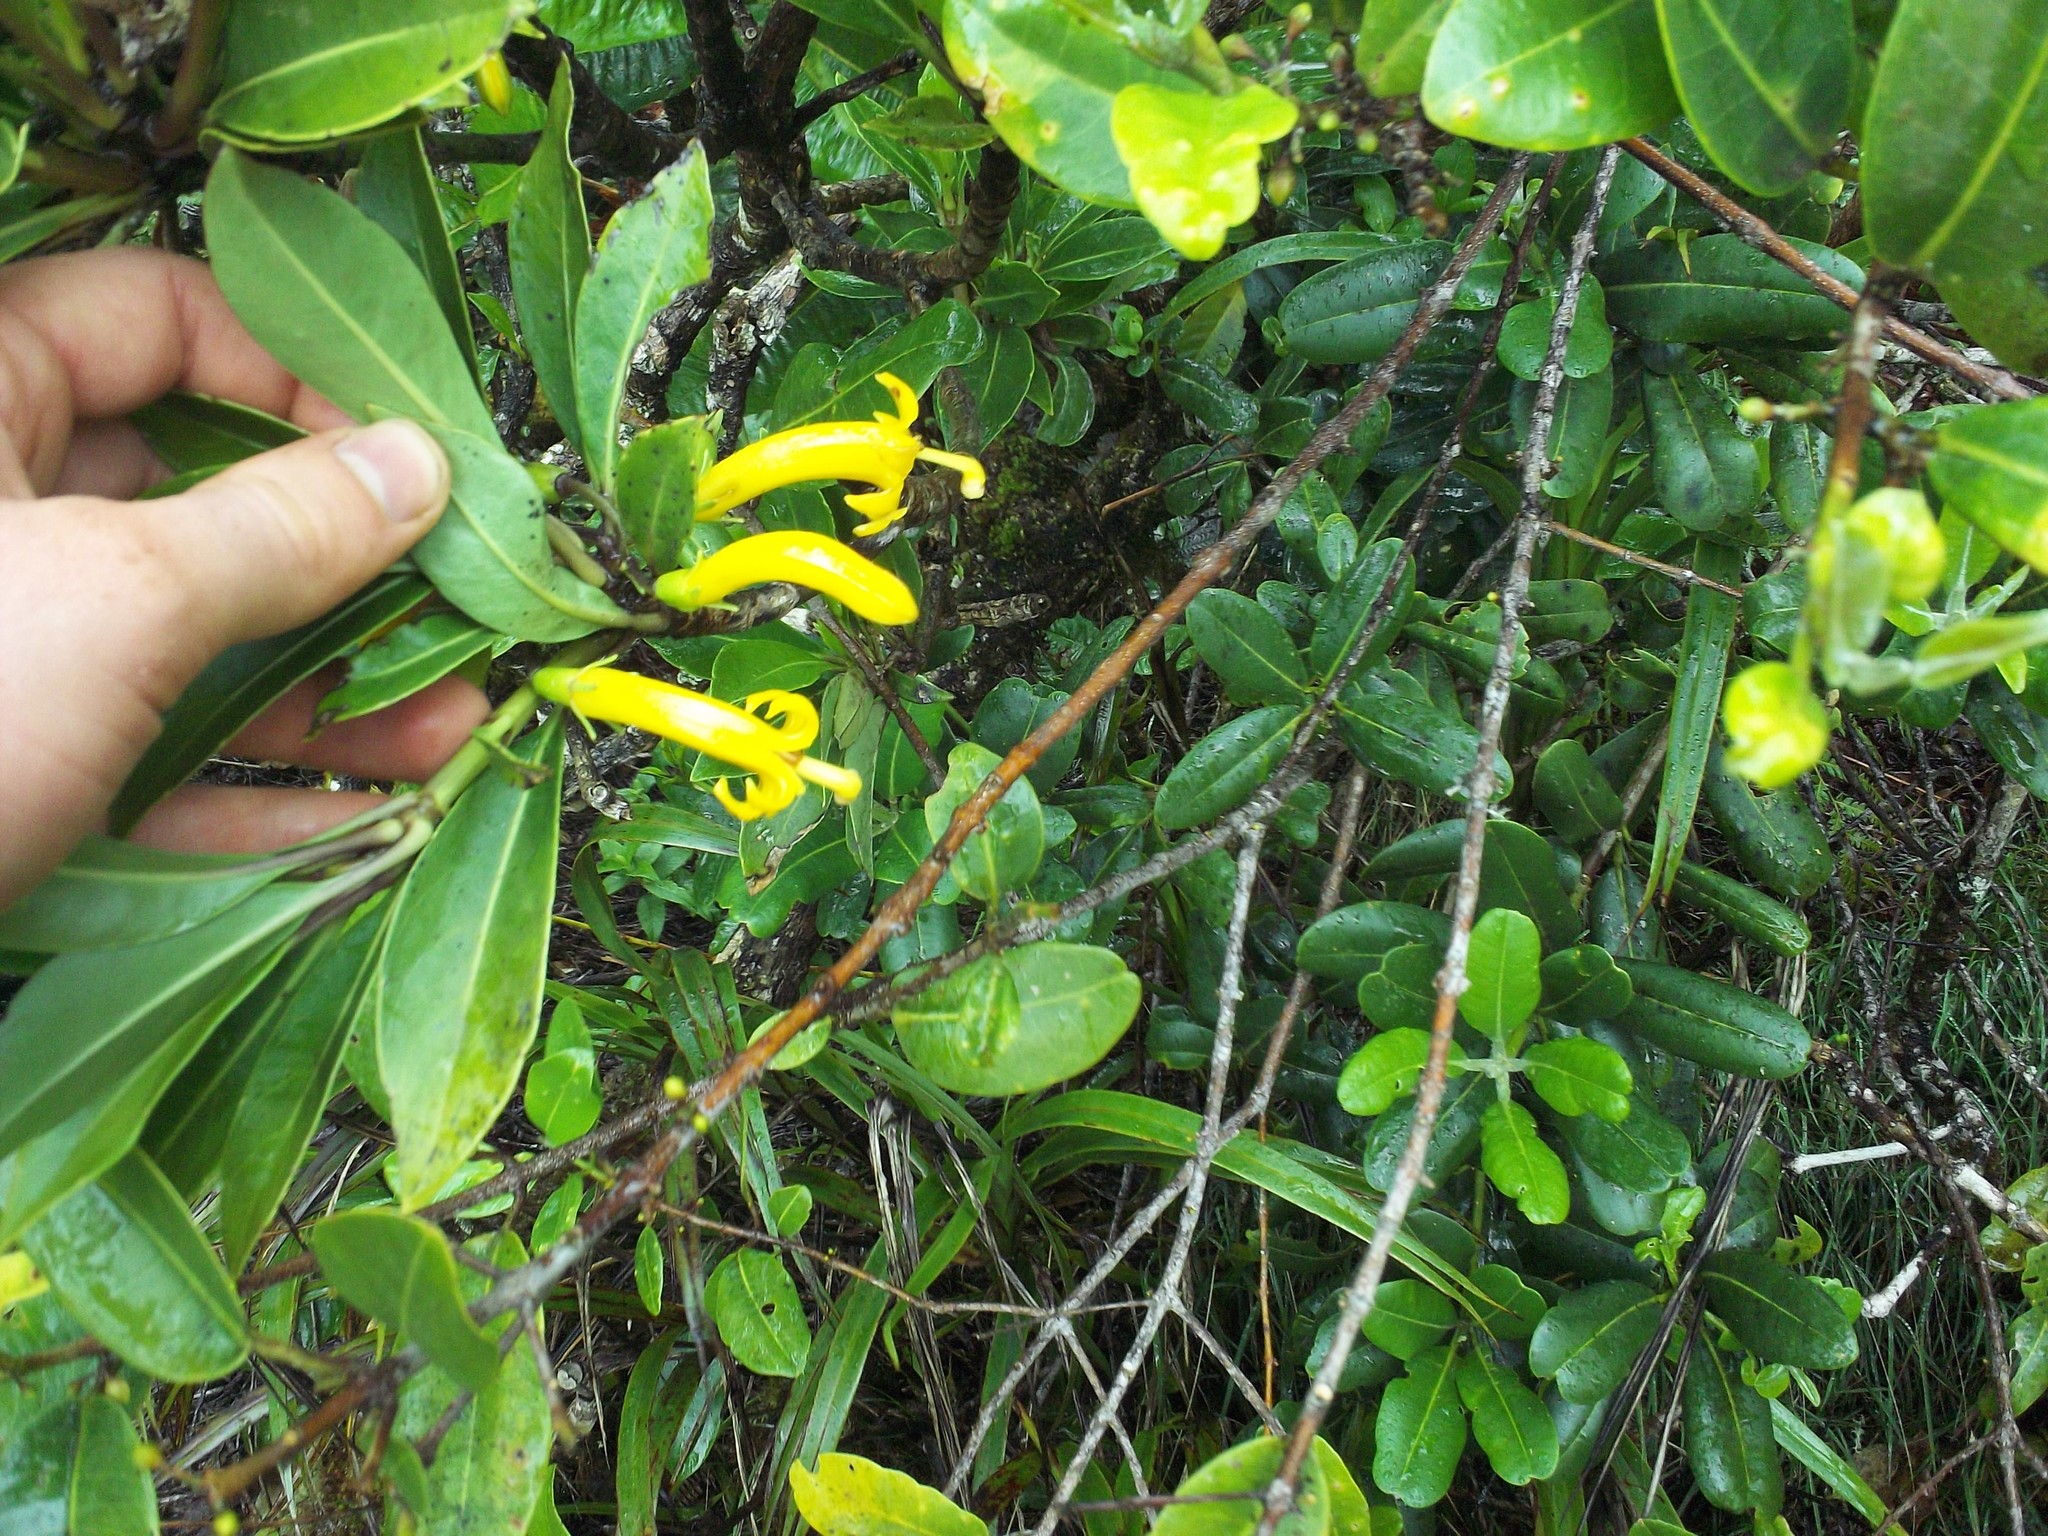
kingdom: Plantae
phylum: Tracheophyta
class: Magnoliopsida
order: Asterales
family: Goodeniaceae
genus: Scaevola
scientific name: Scaevola glabra
